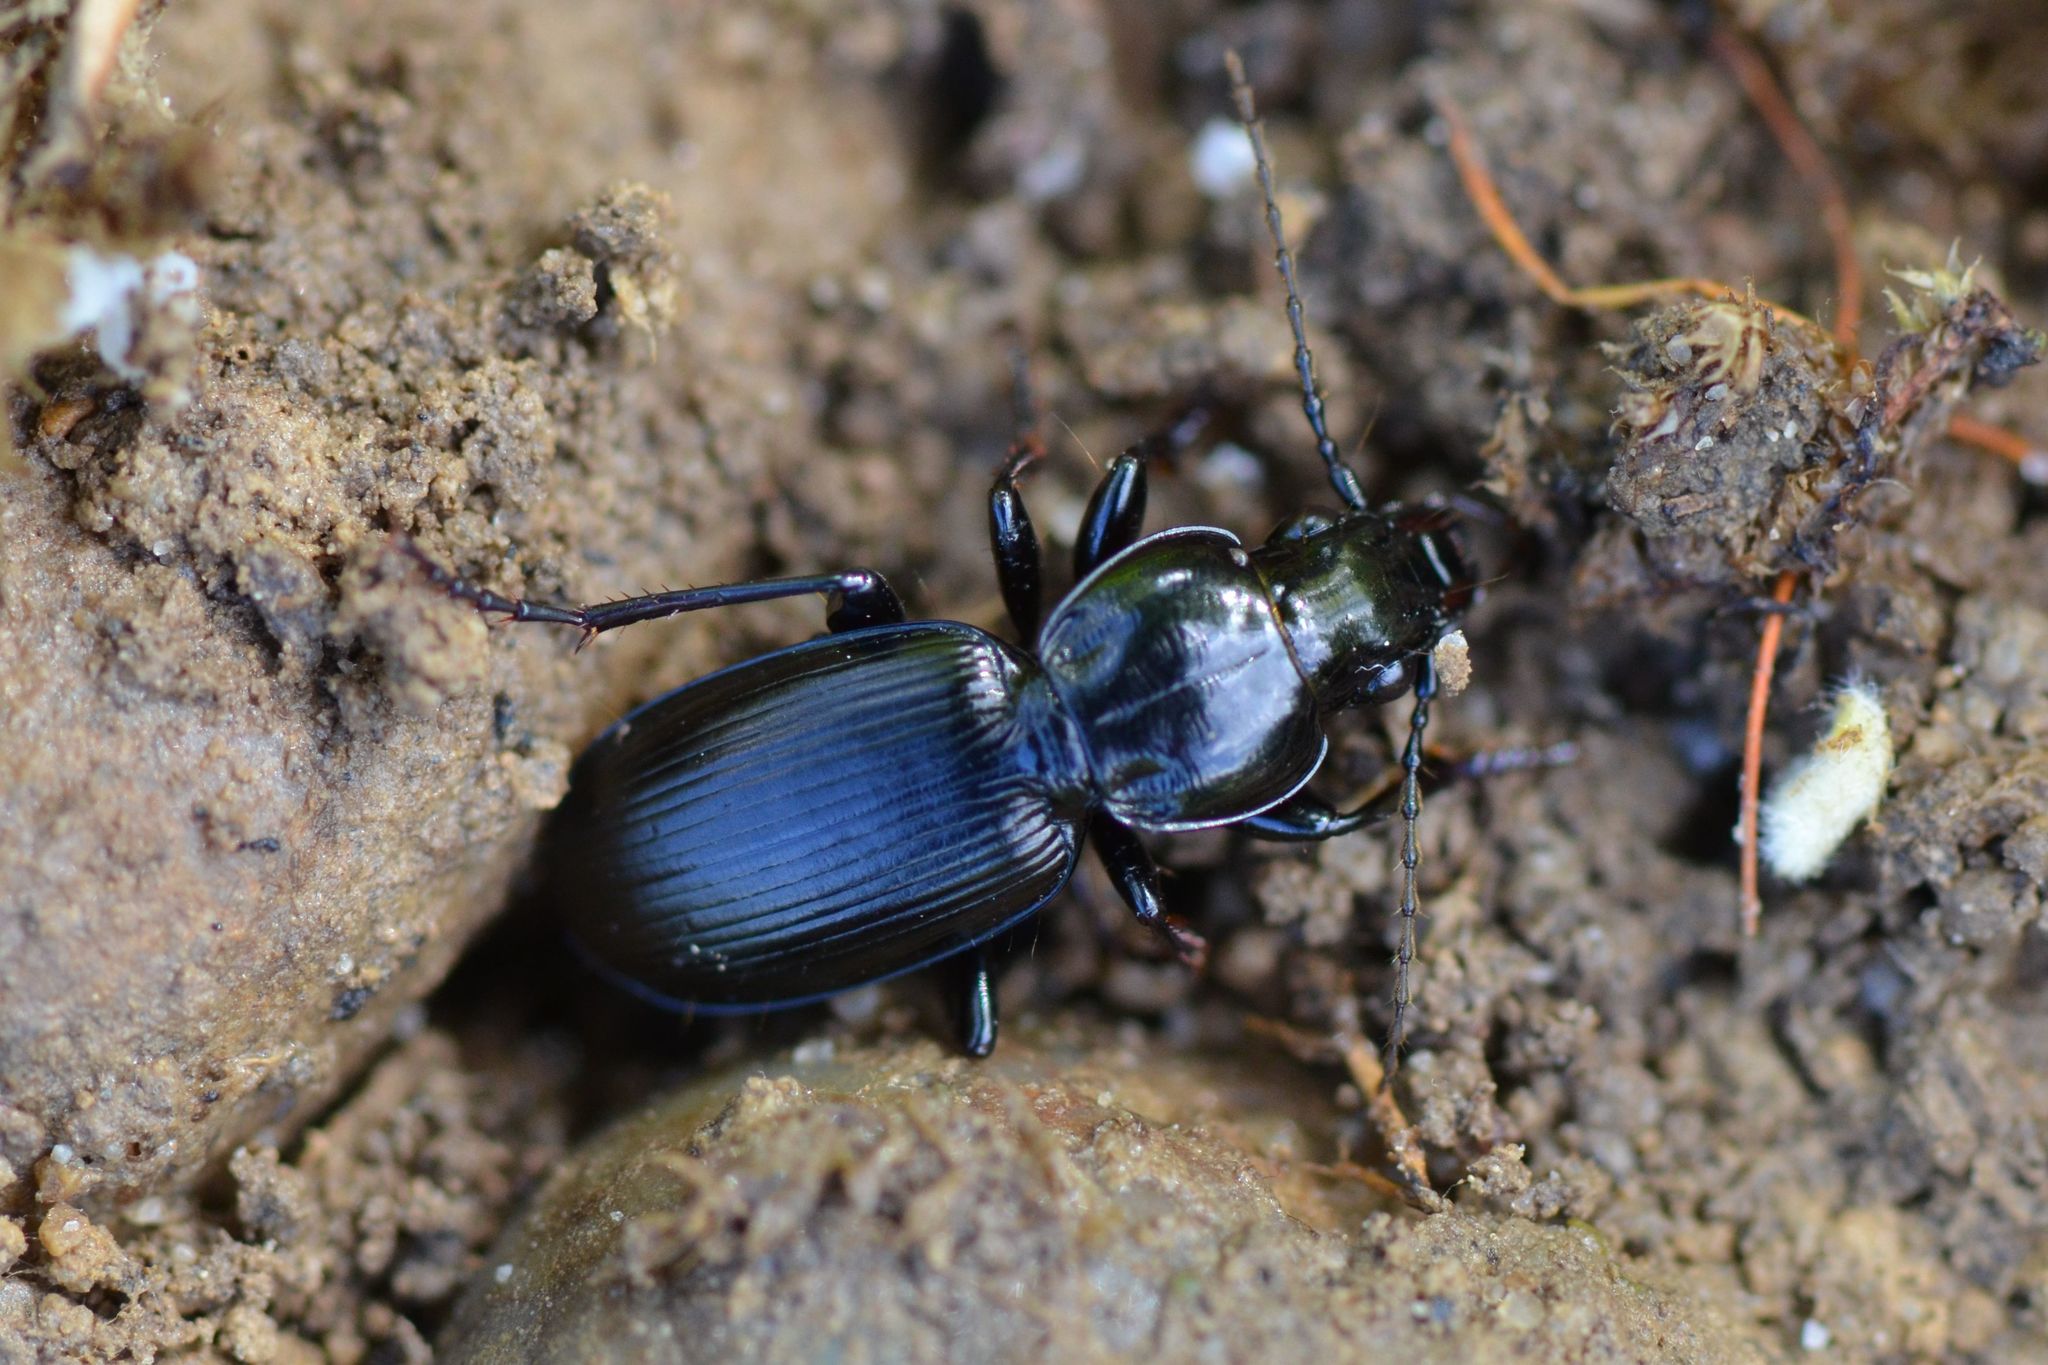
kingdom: Animalia
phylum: Arthropoda
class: Insecta
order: Coleoptera
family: Carabidae
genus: Pterostichus
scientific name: Pterostichus madidus
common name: Black clock
